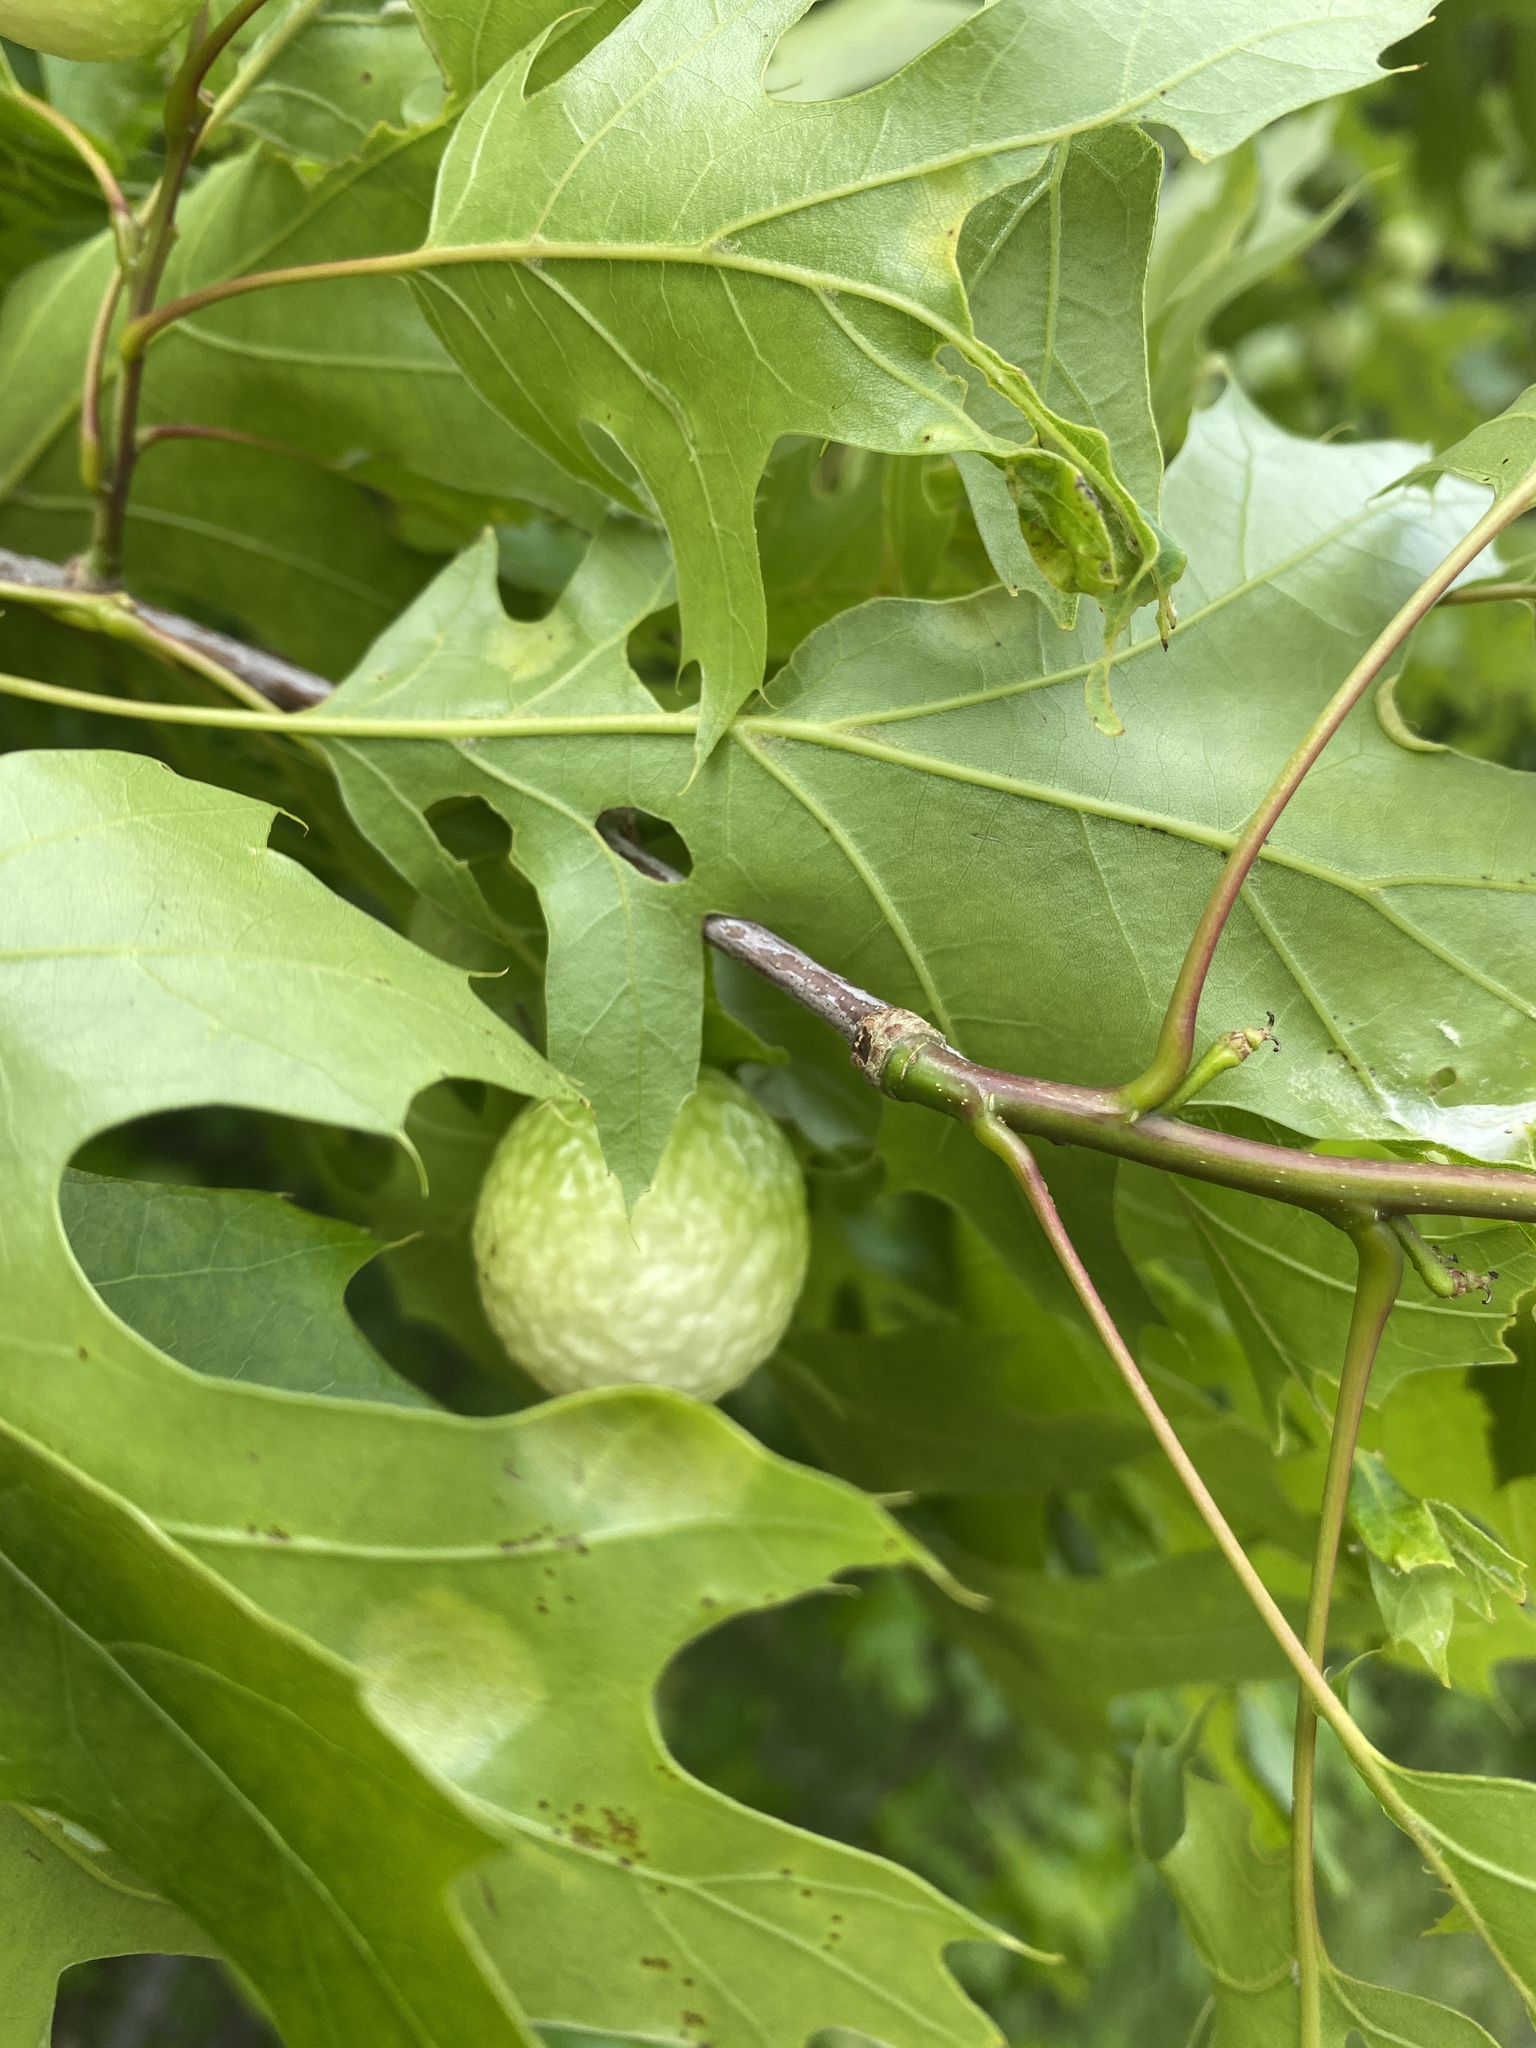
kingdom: Animalia
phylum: Arthropoda
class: Insecta
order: Hymenoptera
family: Cynipidae
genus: Amphibolips
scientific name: Amphibolips
